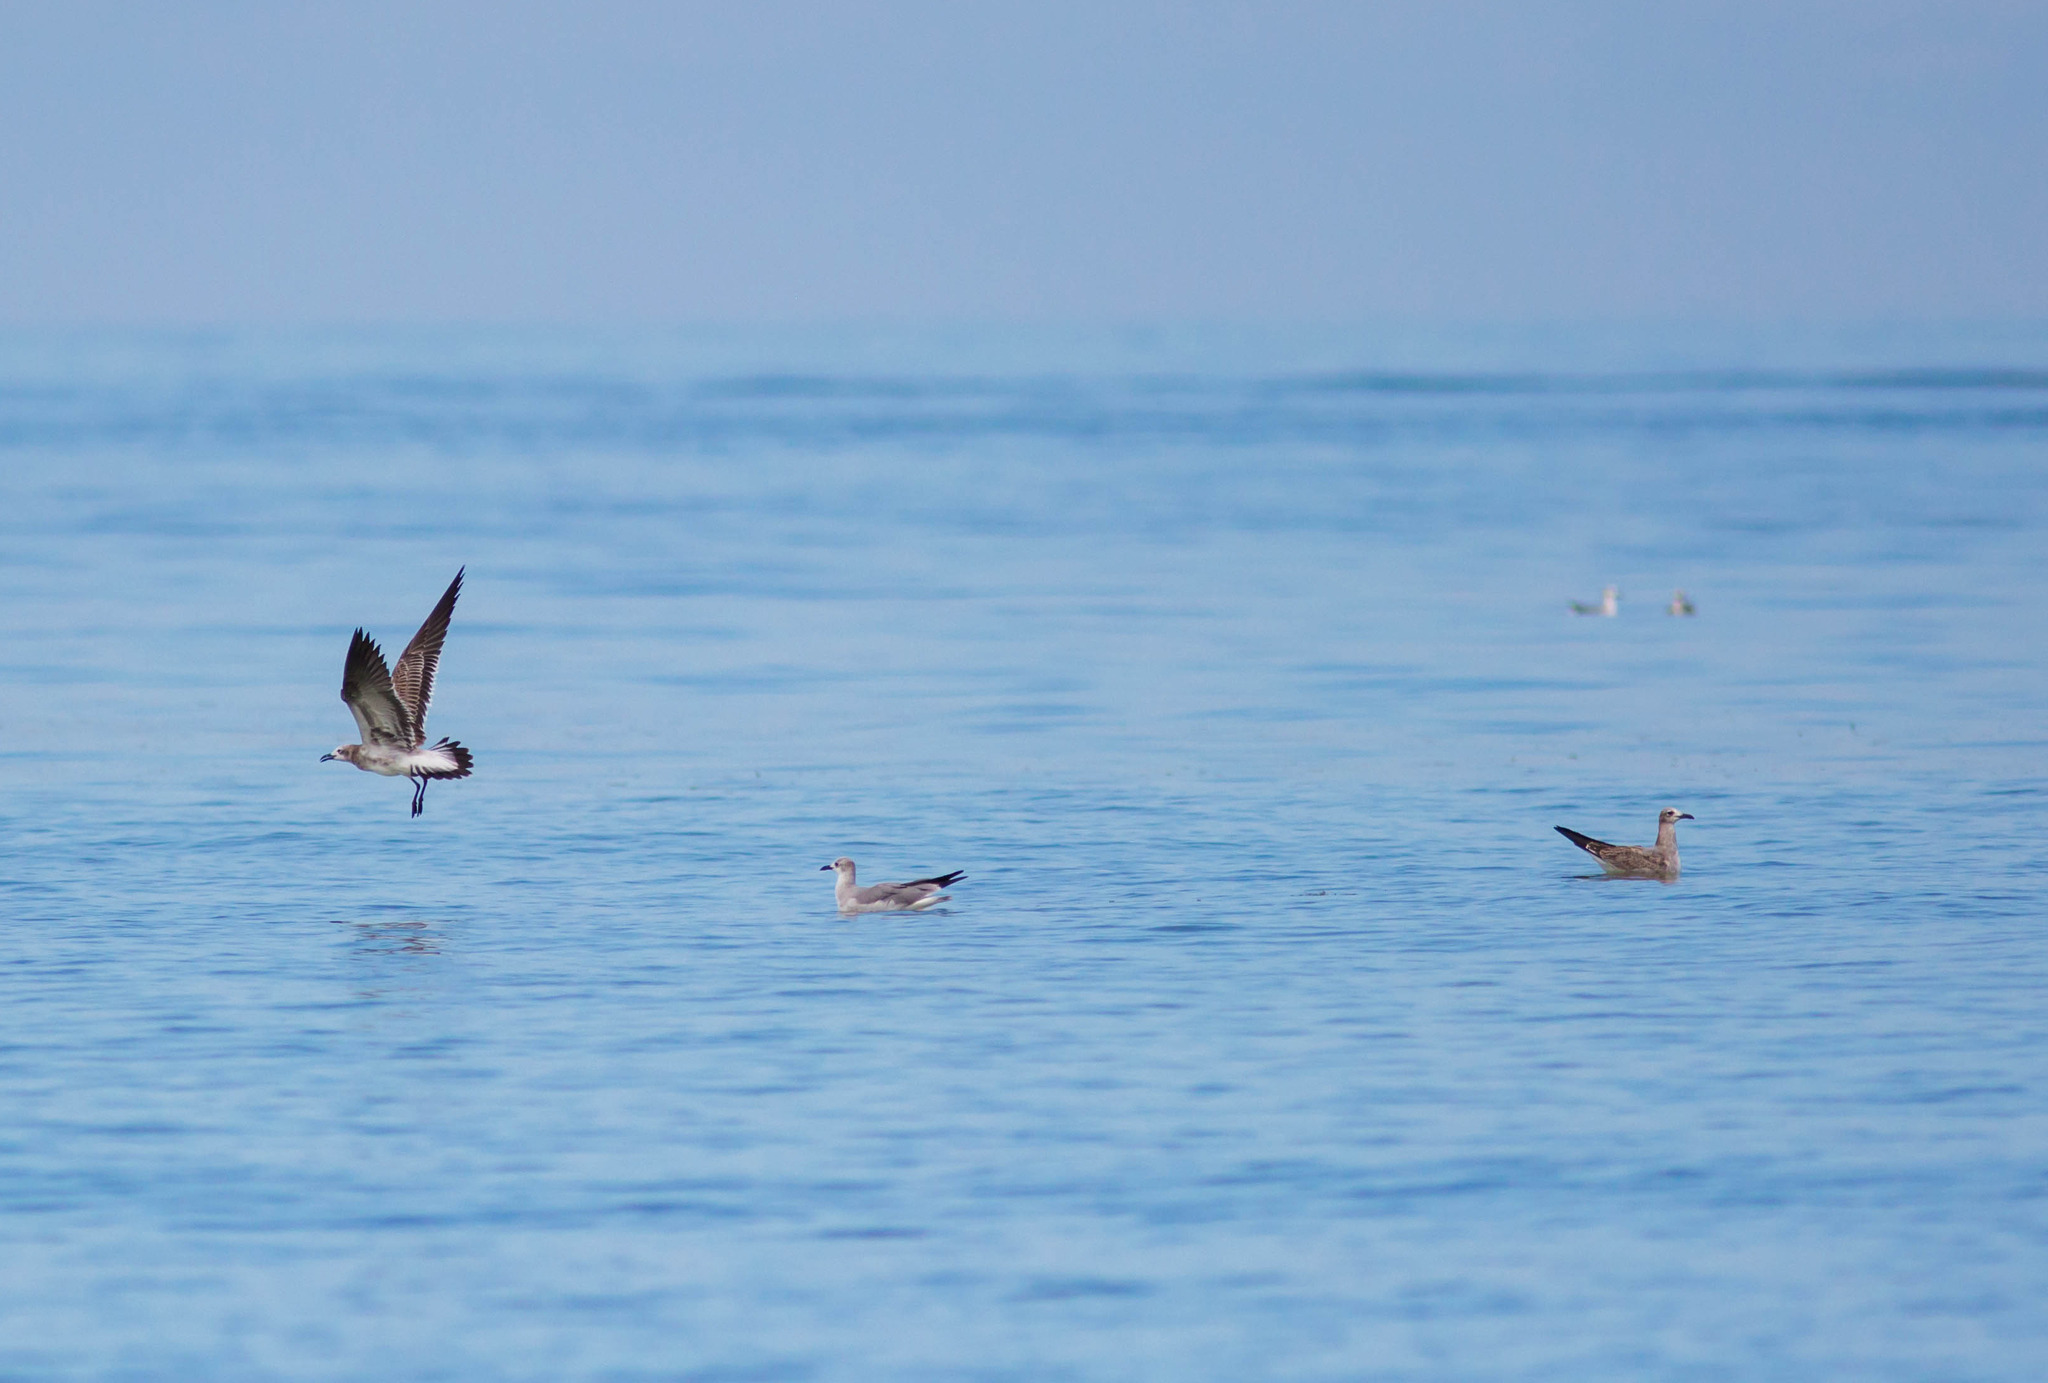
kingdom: Animalia
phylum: Chordata
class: Aves
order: Charadriiformes
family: Laridae
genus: Leucophaeus
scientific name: Leucophaeus atricilla
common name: Laughing gull
